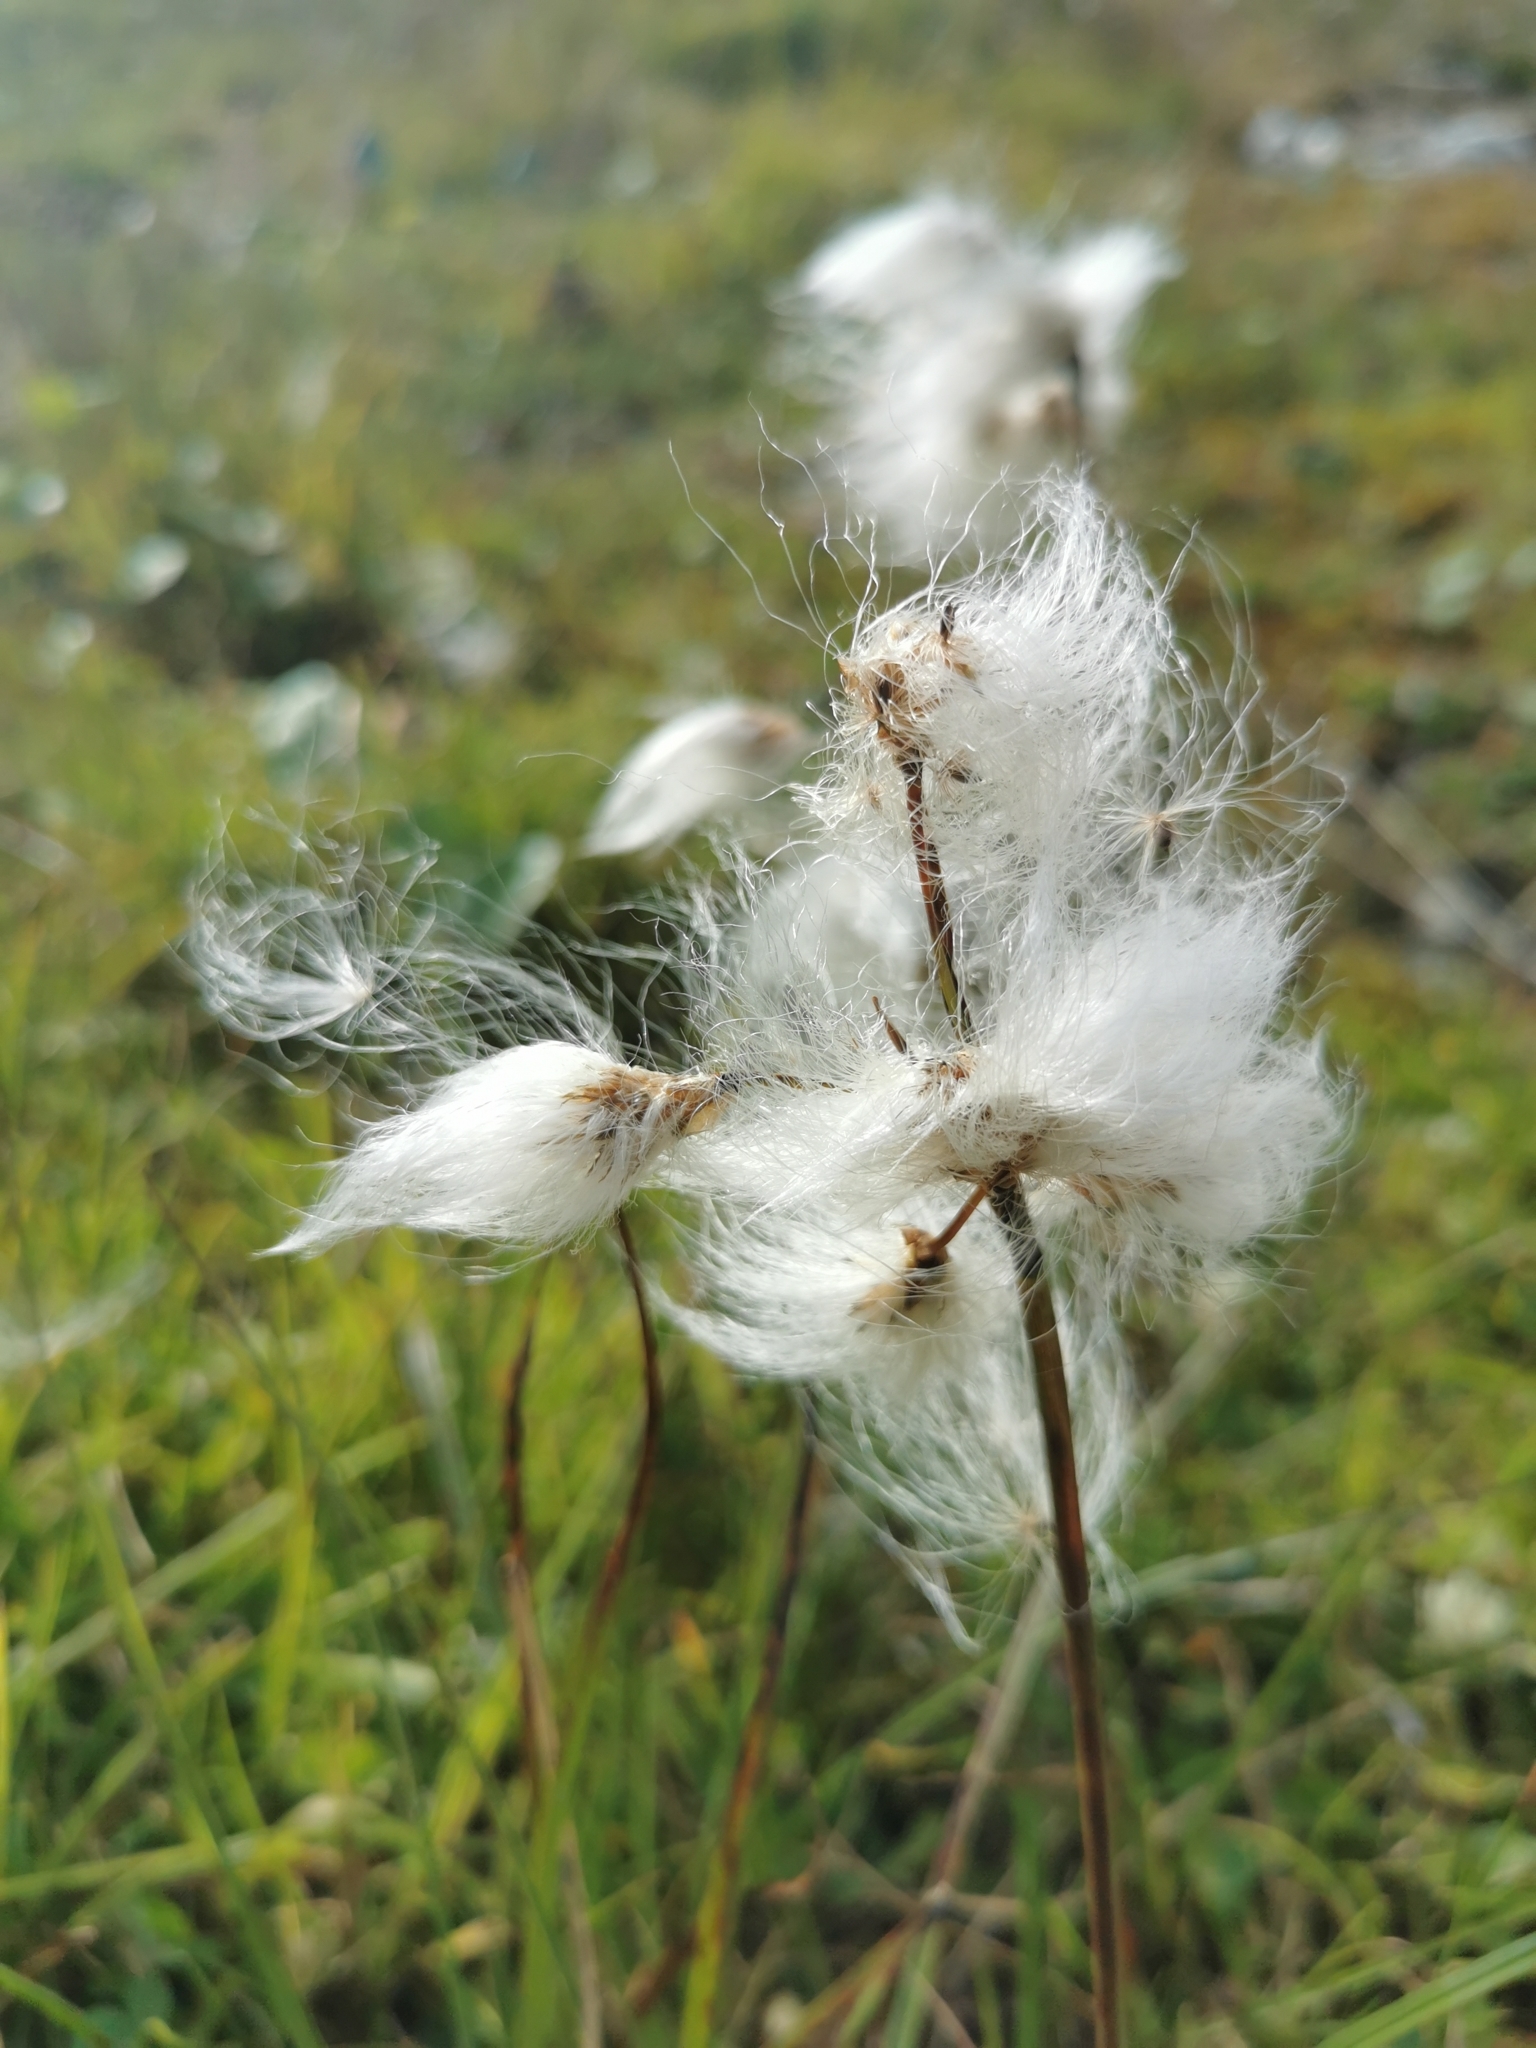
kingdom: Plantae
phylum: Tracheophyta
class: Liliopsida
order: Poales
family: Cyperaceae
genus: Eriophorum
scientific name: Eriophorum angustifolium
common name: Common cottongrass
